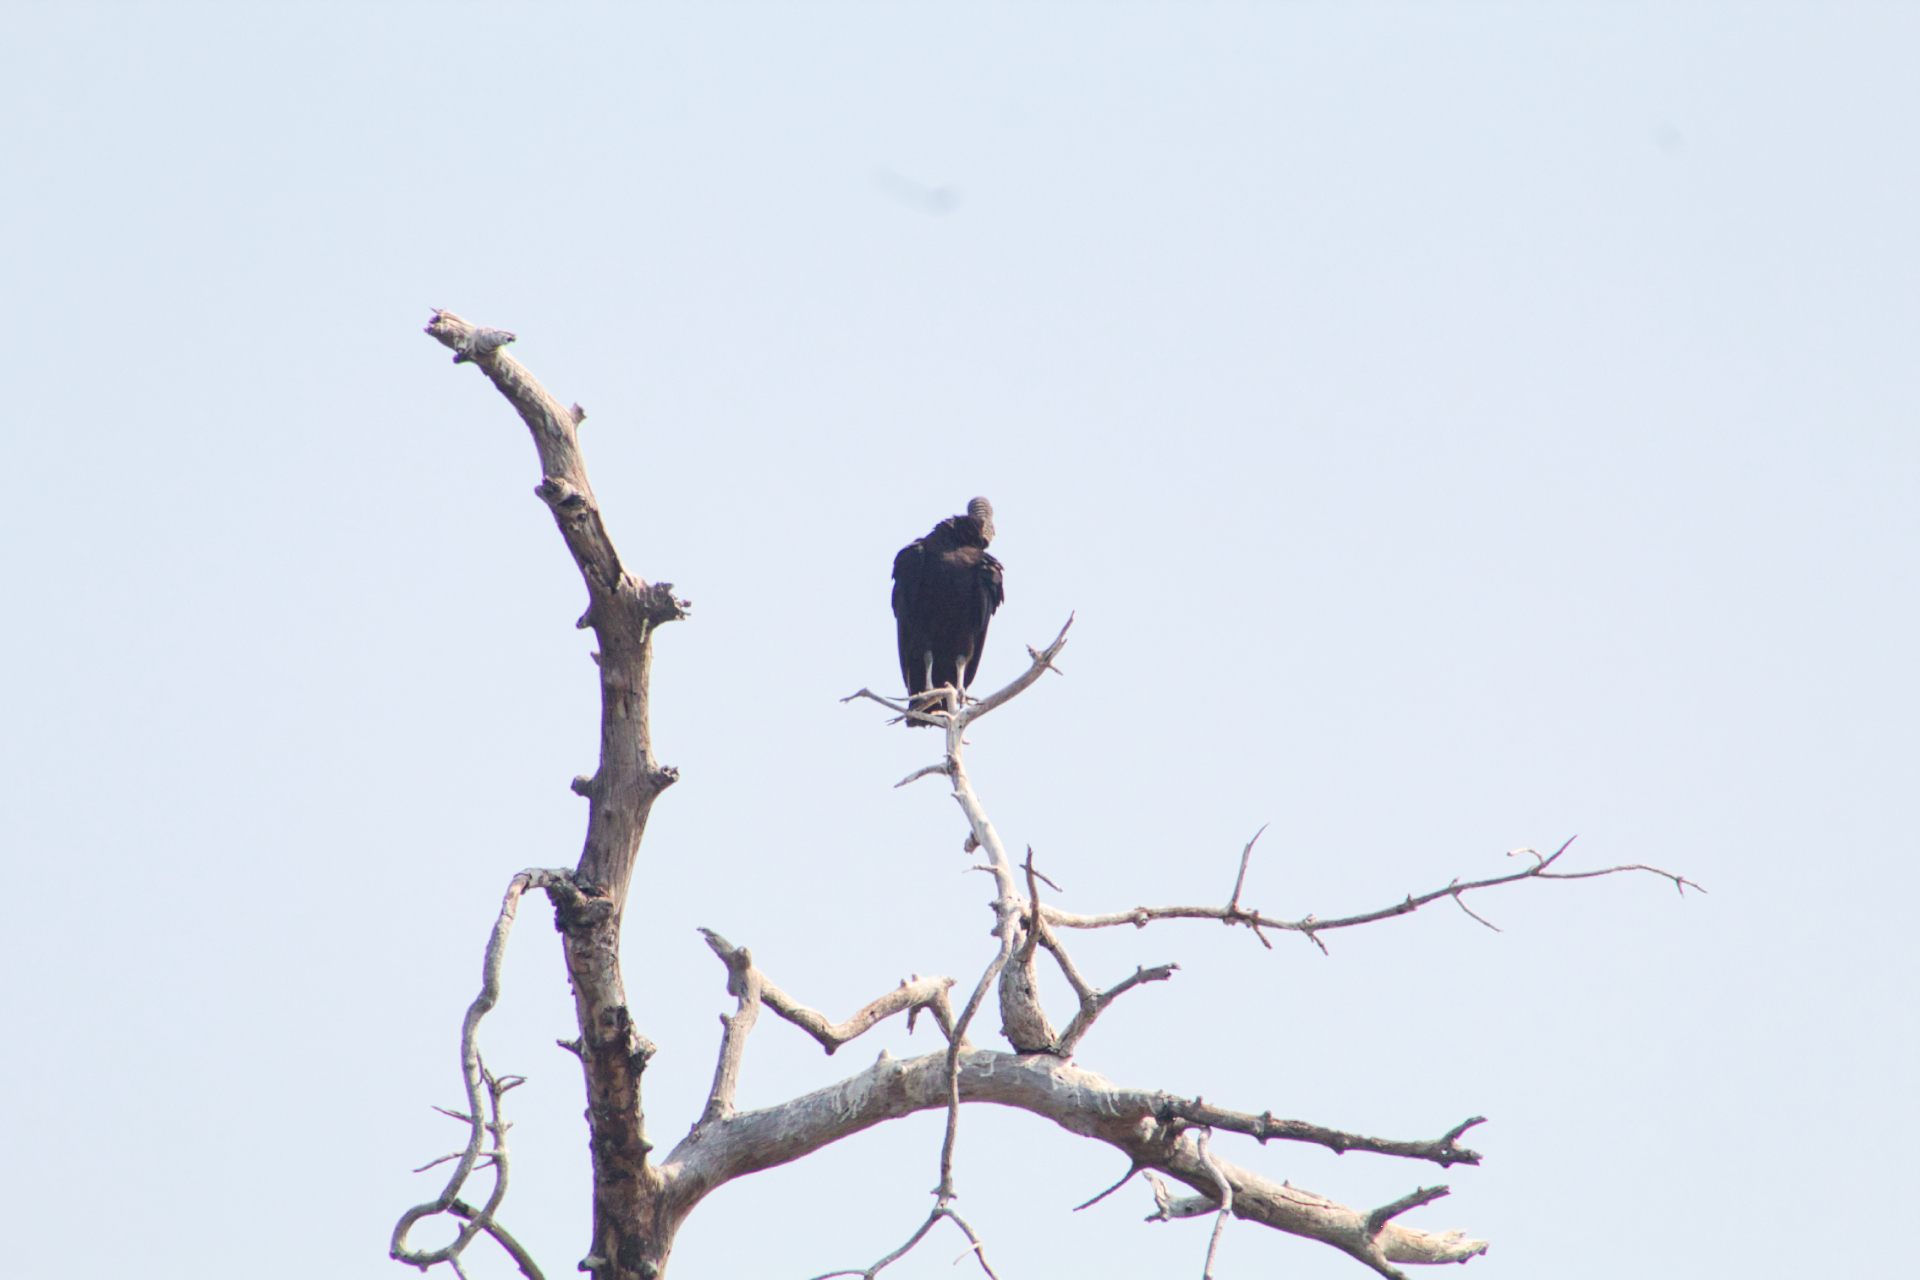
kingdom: Animalia
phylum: Chordata
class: Aves
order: Accipitriformes
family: Cathartidae
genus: Coragyps
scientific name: Coragyps atratus
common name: Black vulture
